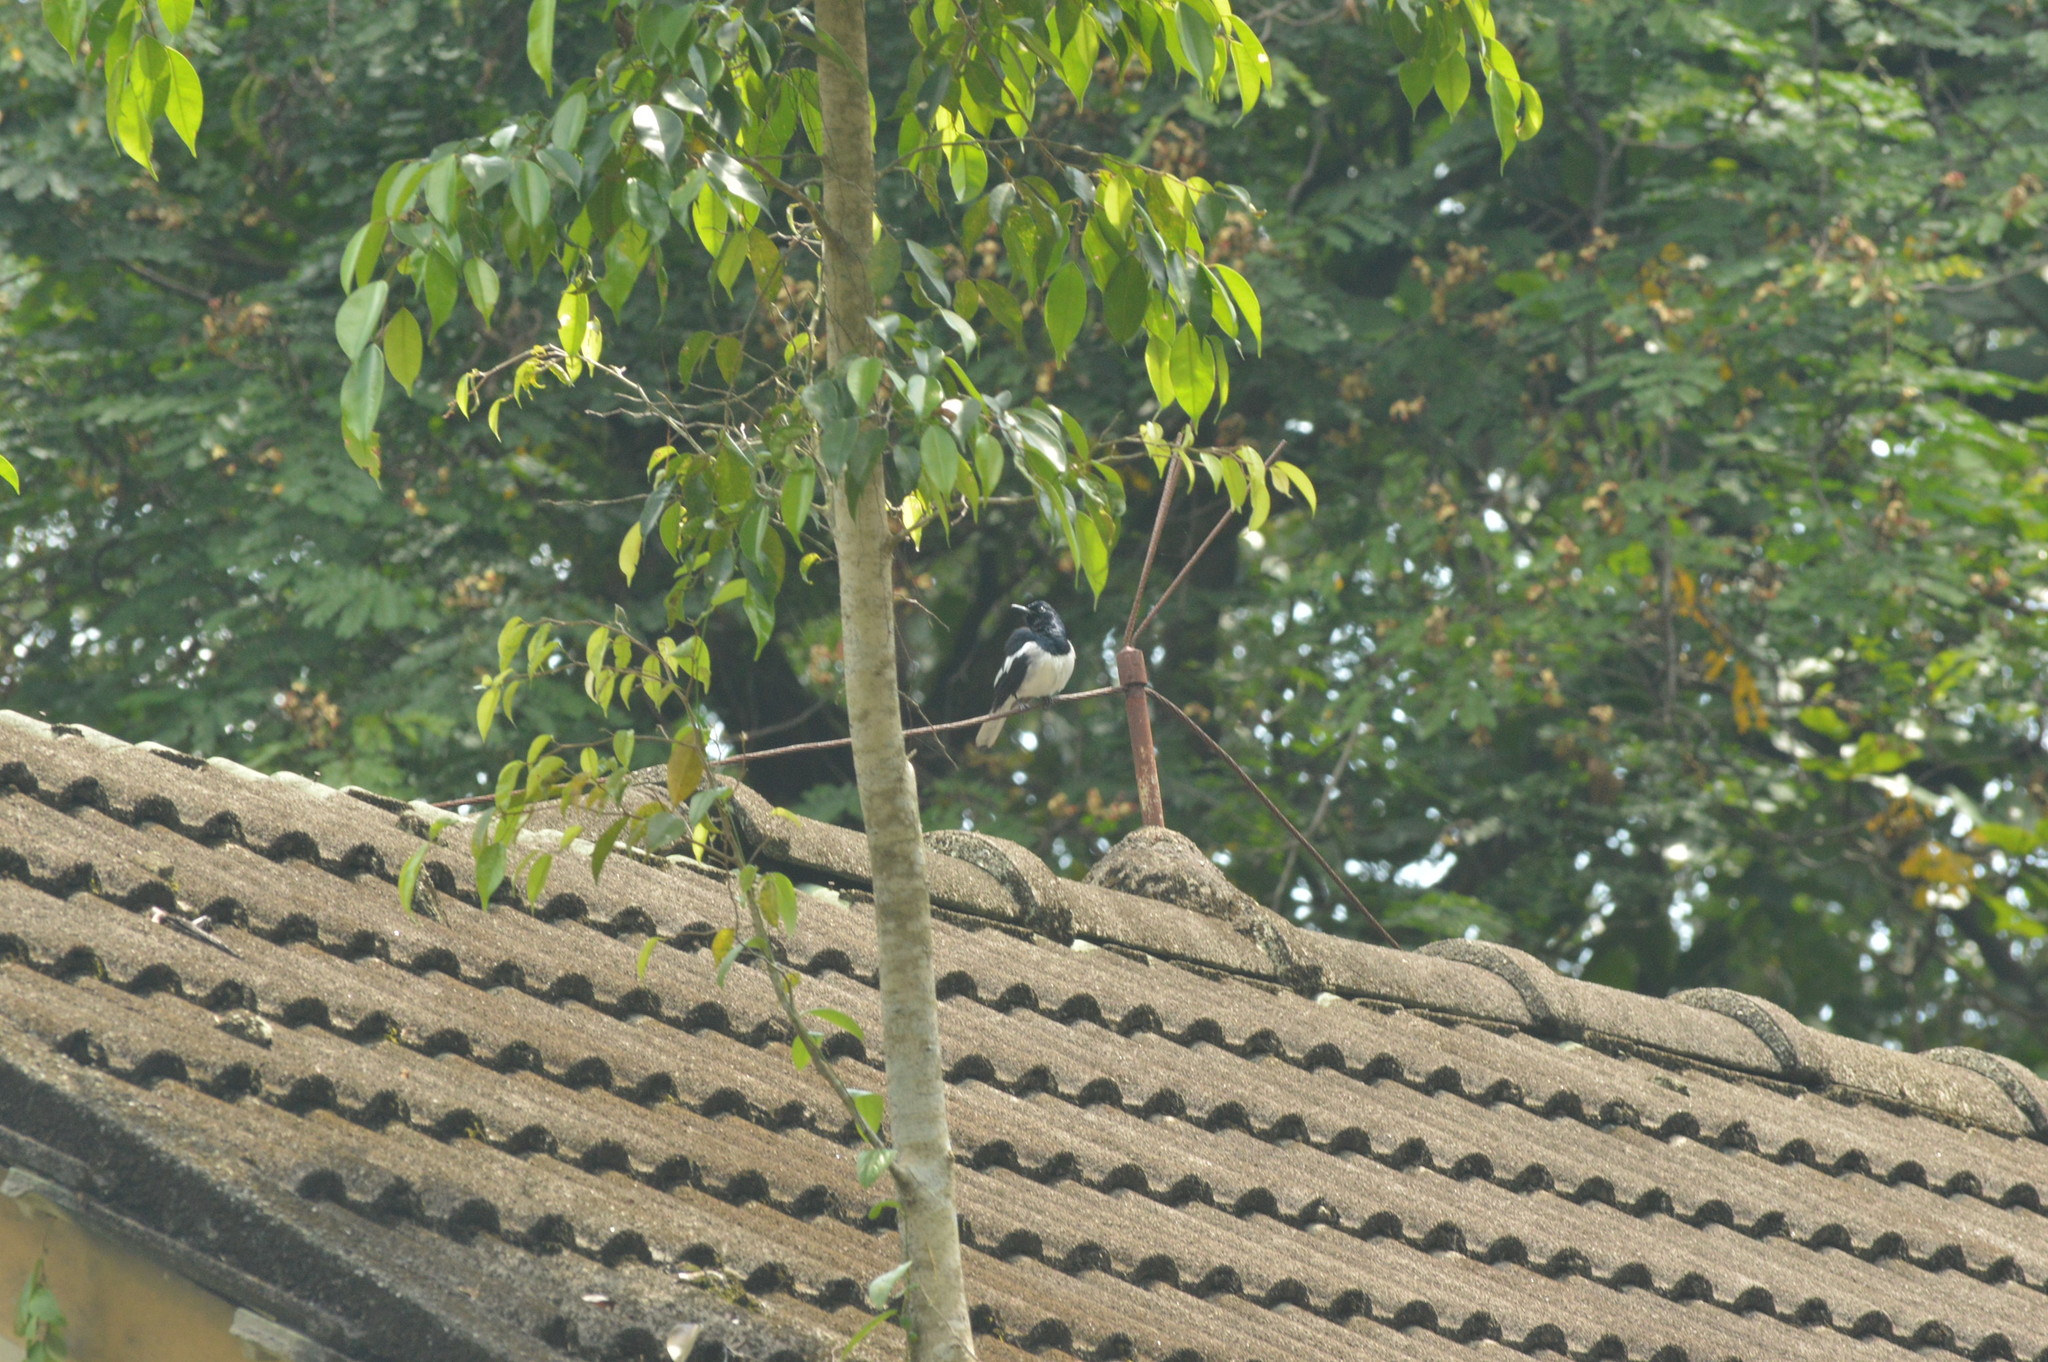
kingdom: Animalia
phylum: Chordata
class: Aves
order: Passeriformes
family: Muscicapidae
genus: Copsychus
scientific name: Copsychus saularis
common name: Oriental magpie-robin
